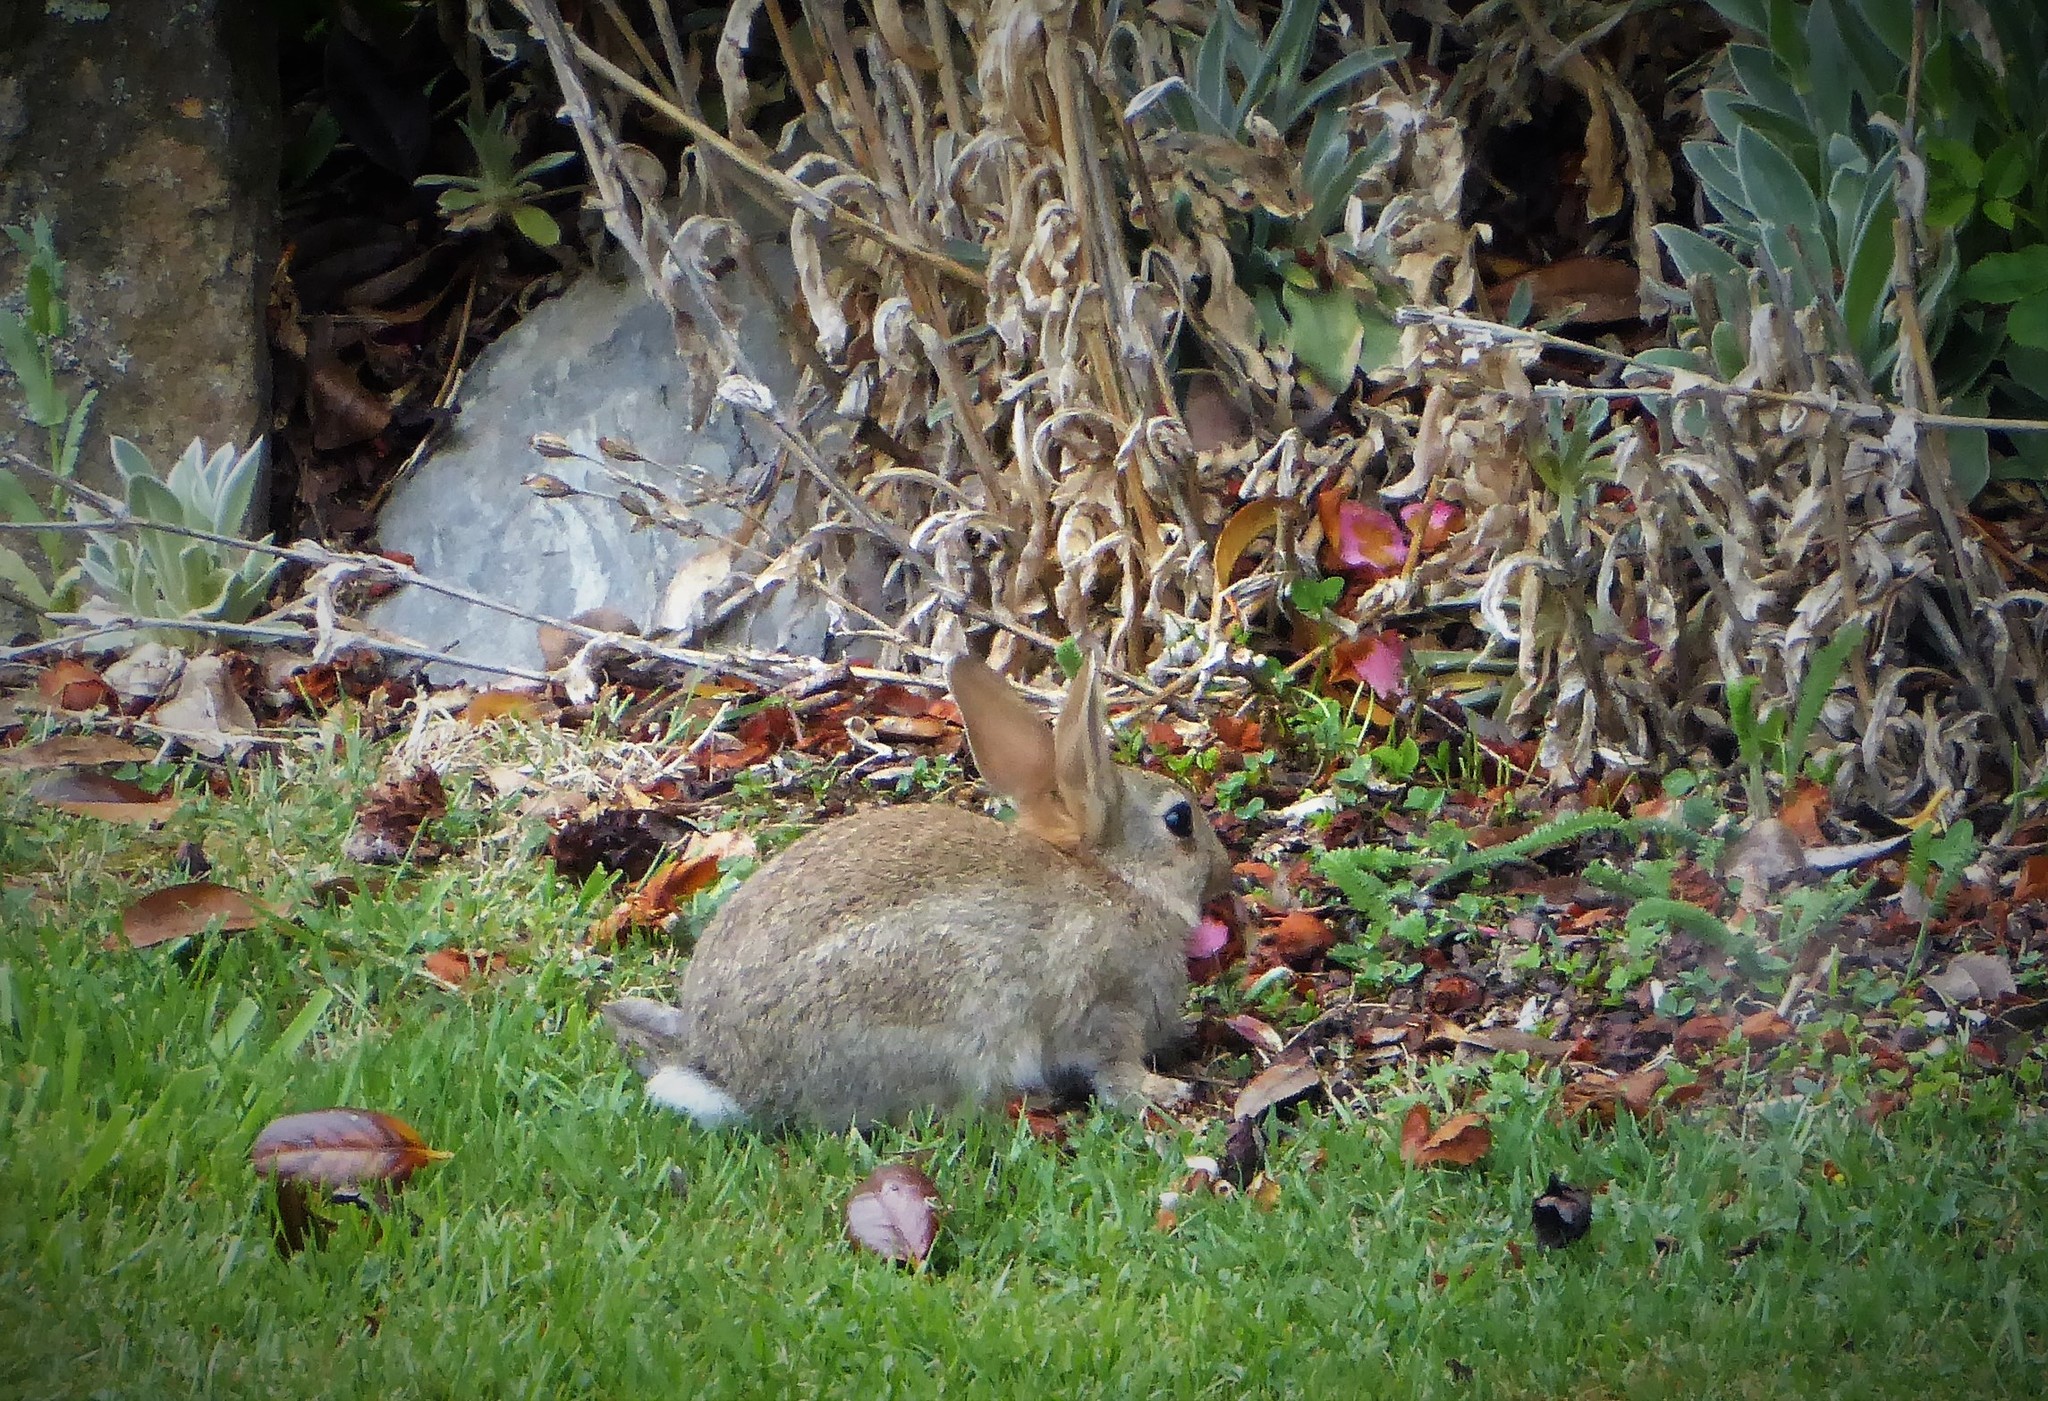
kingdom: Animalia
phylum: Chordata
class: Mammalia
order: Lagomorpha
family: Leporidae
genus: Oryctolagus
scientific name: Oryctolagus cuniculus
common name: European rabbit
